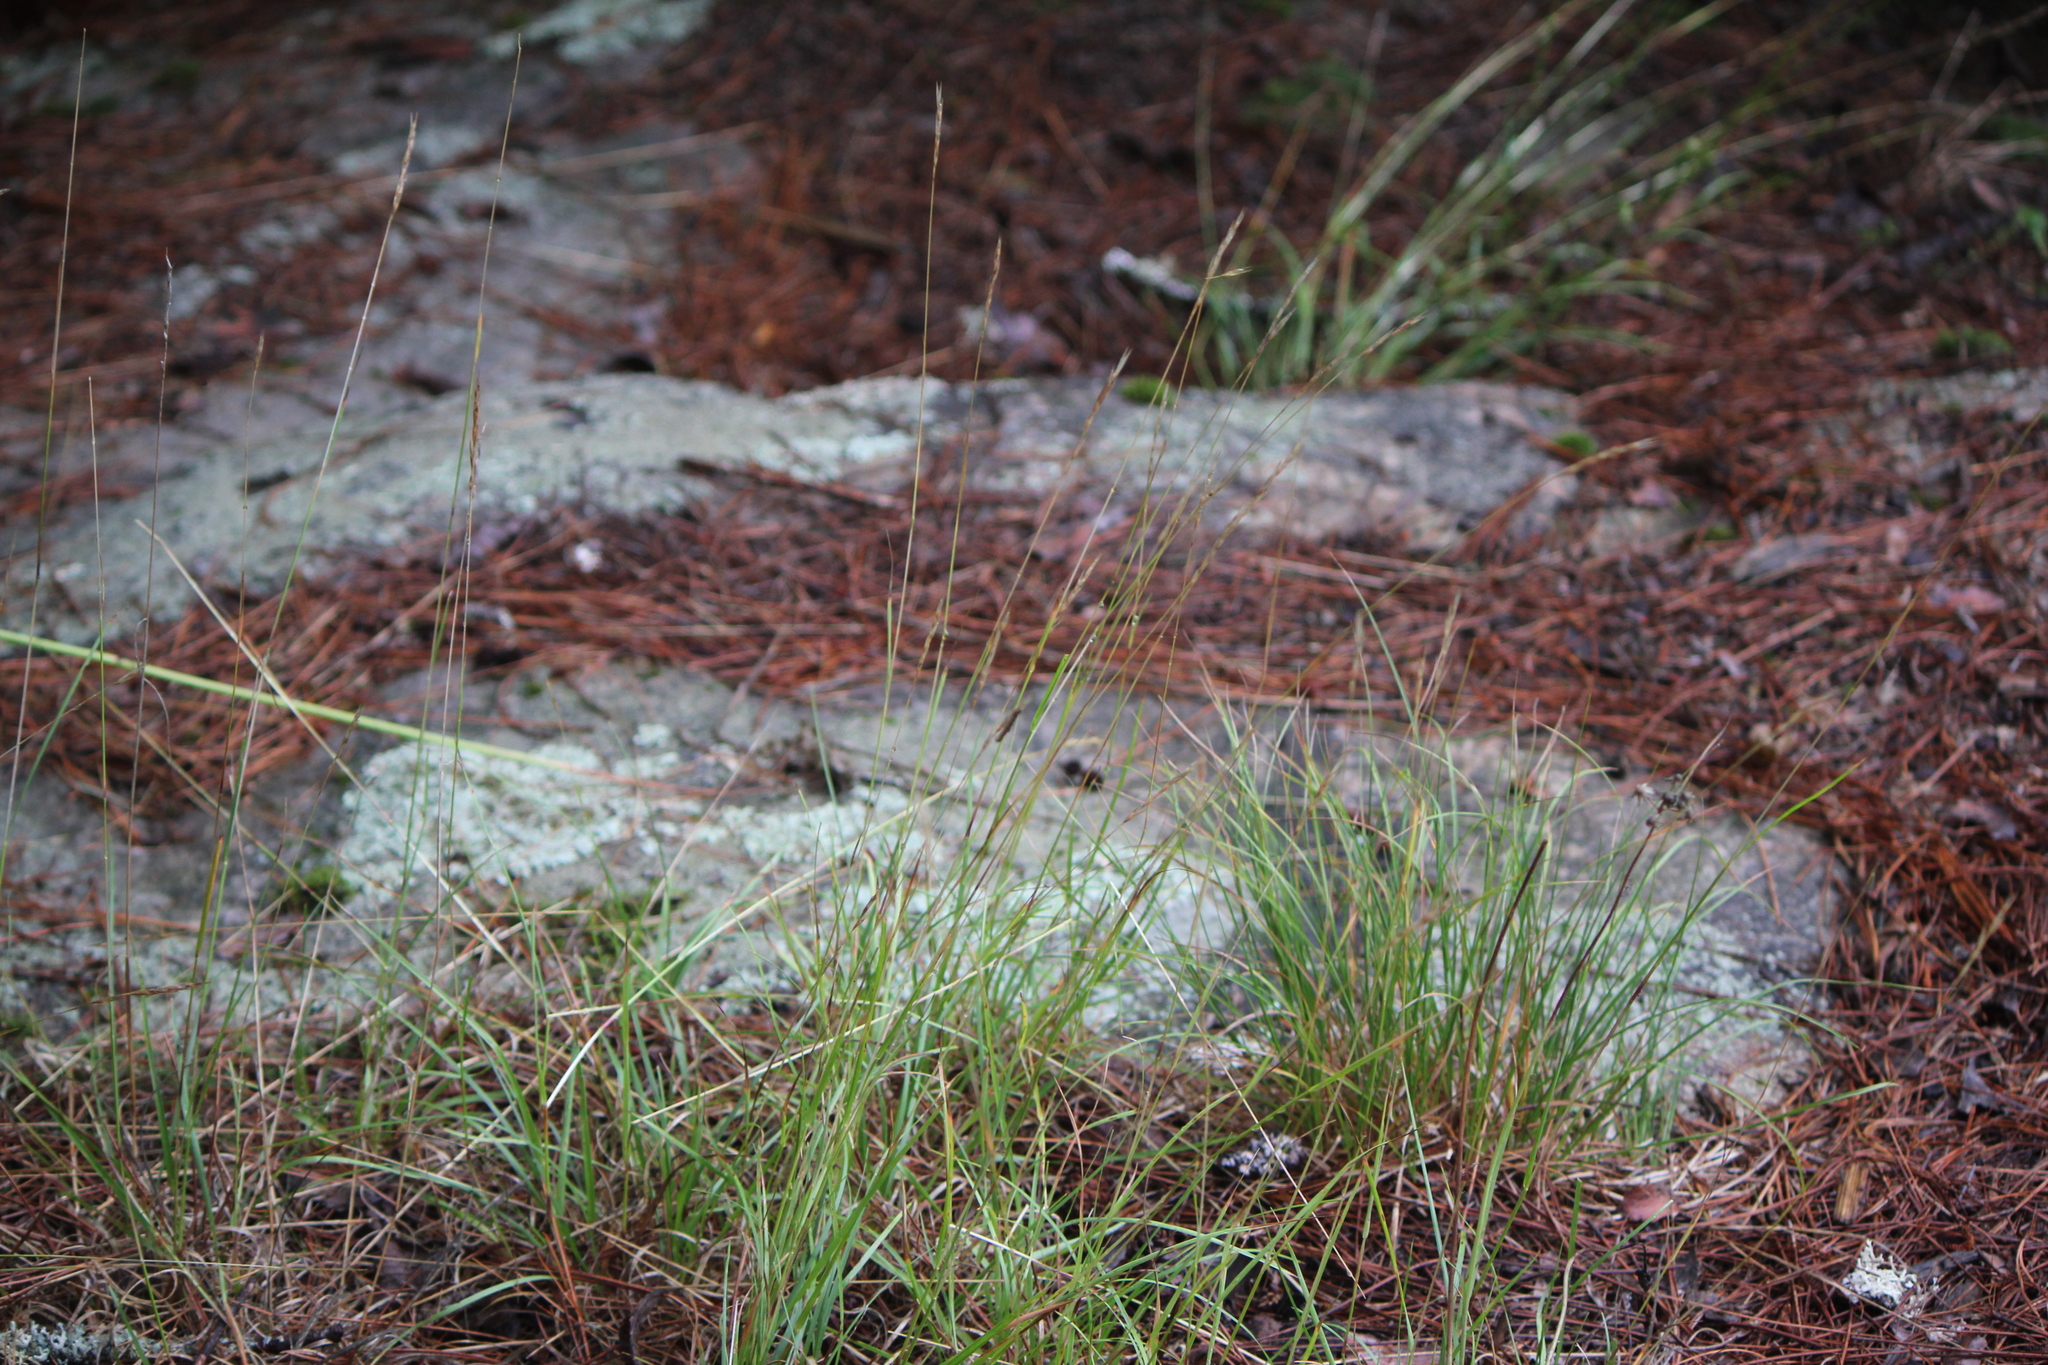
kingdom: Plantae
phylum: Tracheophyta
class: Liliopsida
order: Poales
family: Poaceae
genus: Danthonia
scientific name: Danthonia spicata
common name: Common wild oatgrass
